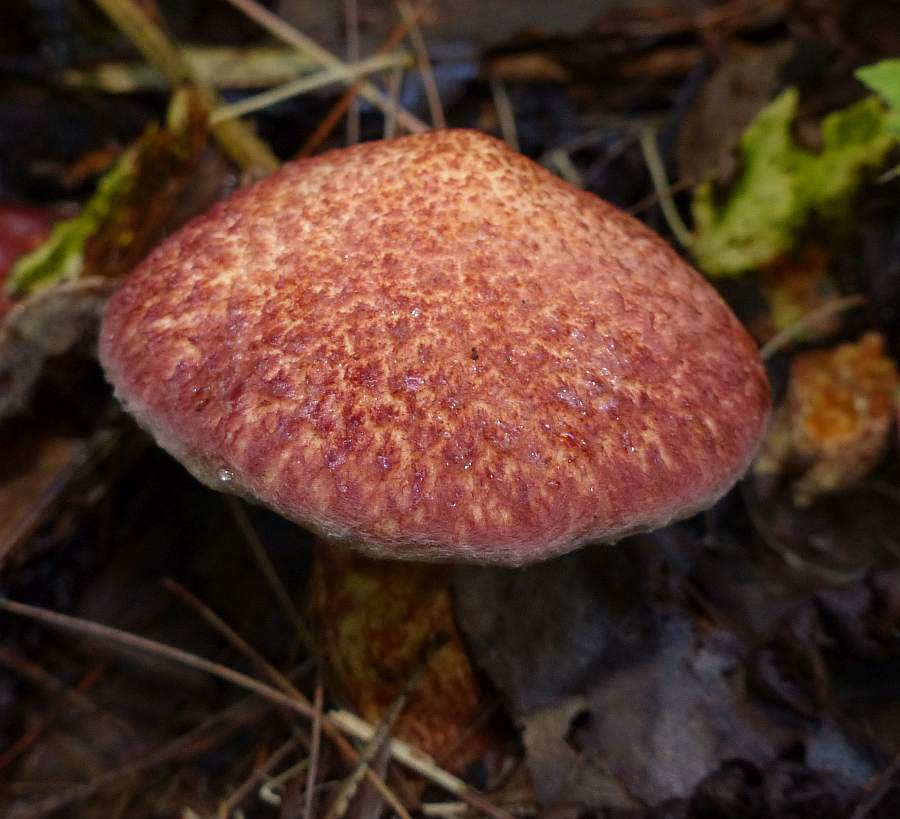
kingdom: Fungi
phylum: Basidiomycota
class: Agaricomycetes
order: Boletales
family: Suillaceae
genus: Suillus
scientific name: Suillus spraguei
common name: Painted suillus
